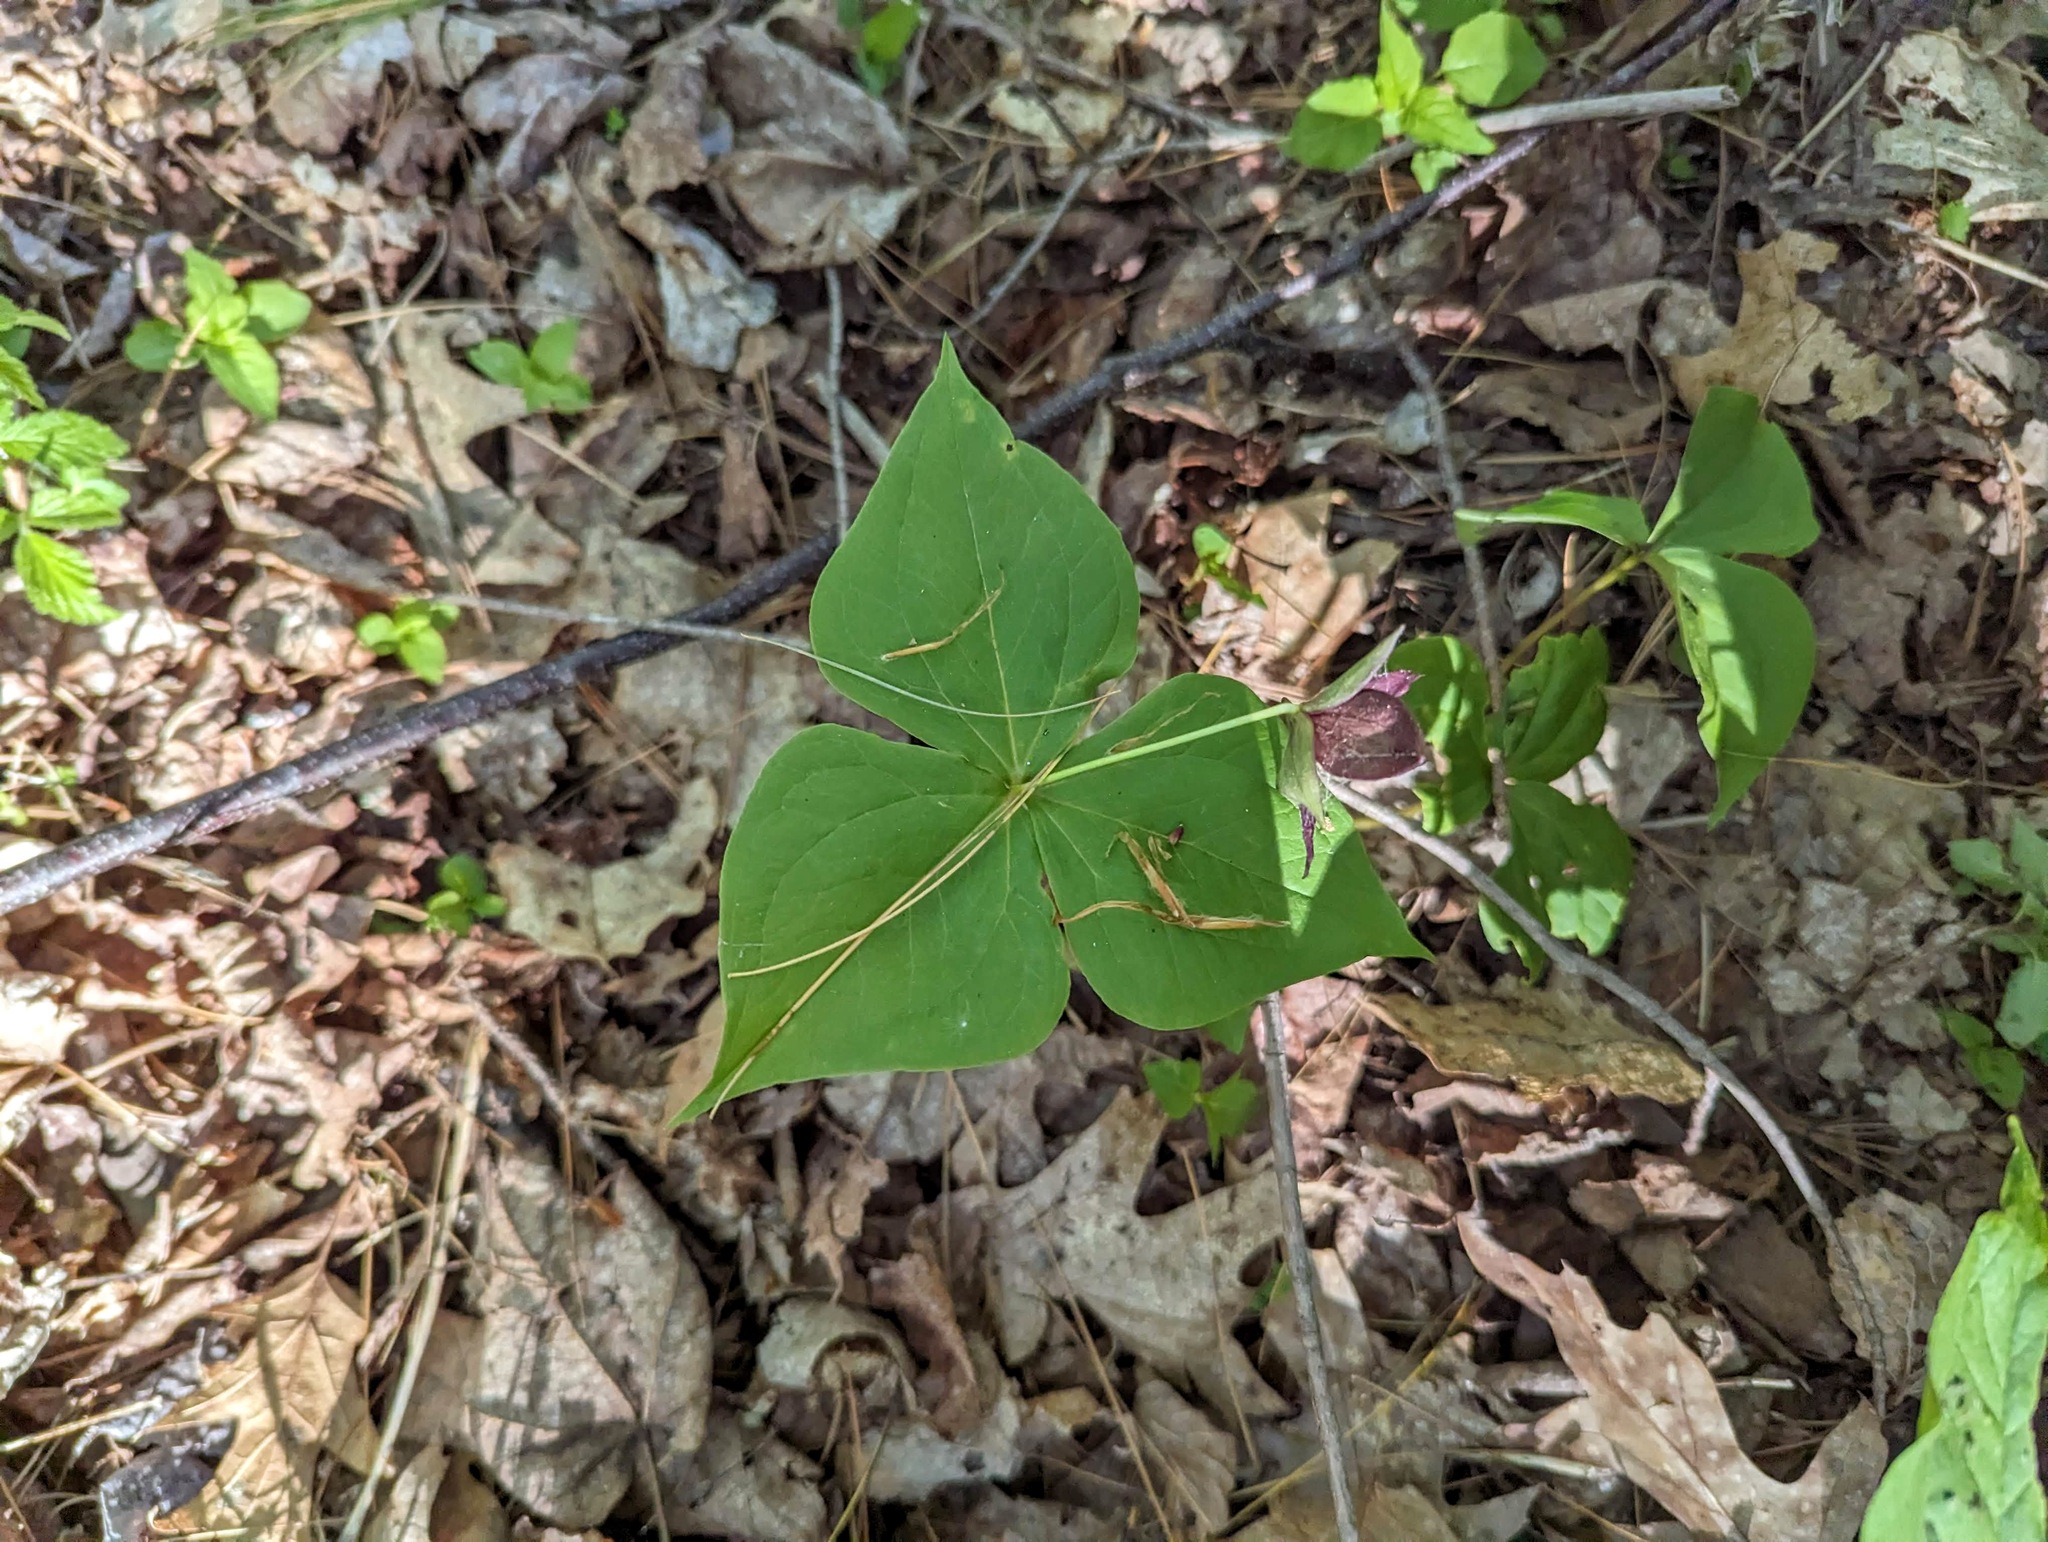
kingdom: Plantae
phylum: Tracheophyta
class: Liliopsida
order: Liliales
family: Melanthiaceae
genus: Trillium
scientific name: Trillium erectum
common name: Purple trillium
